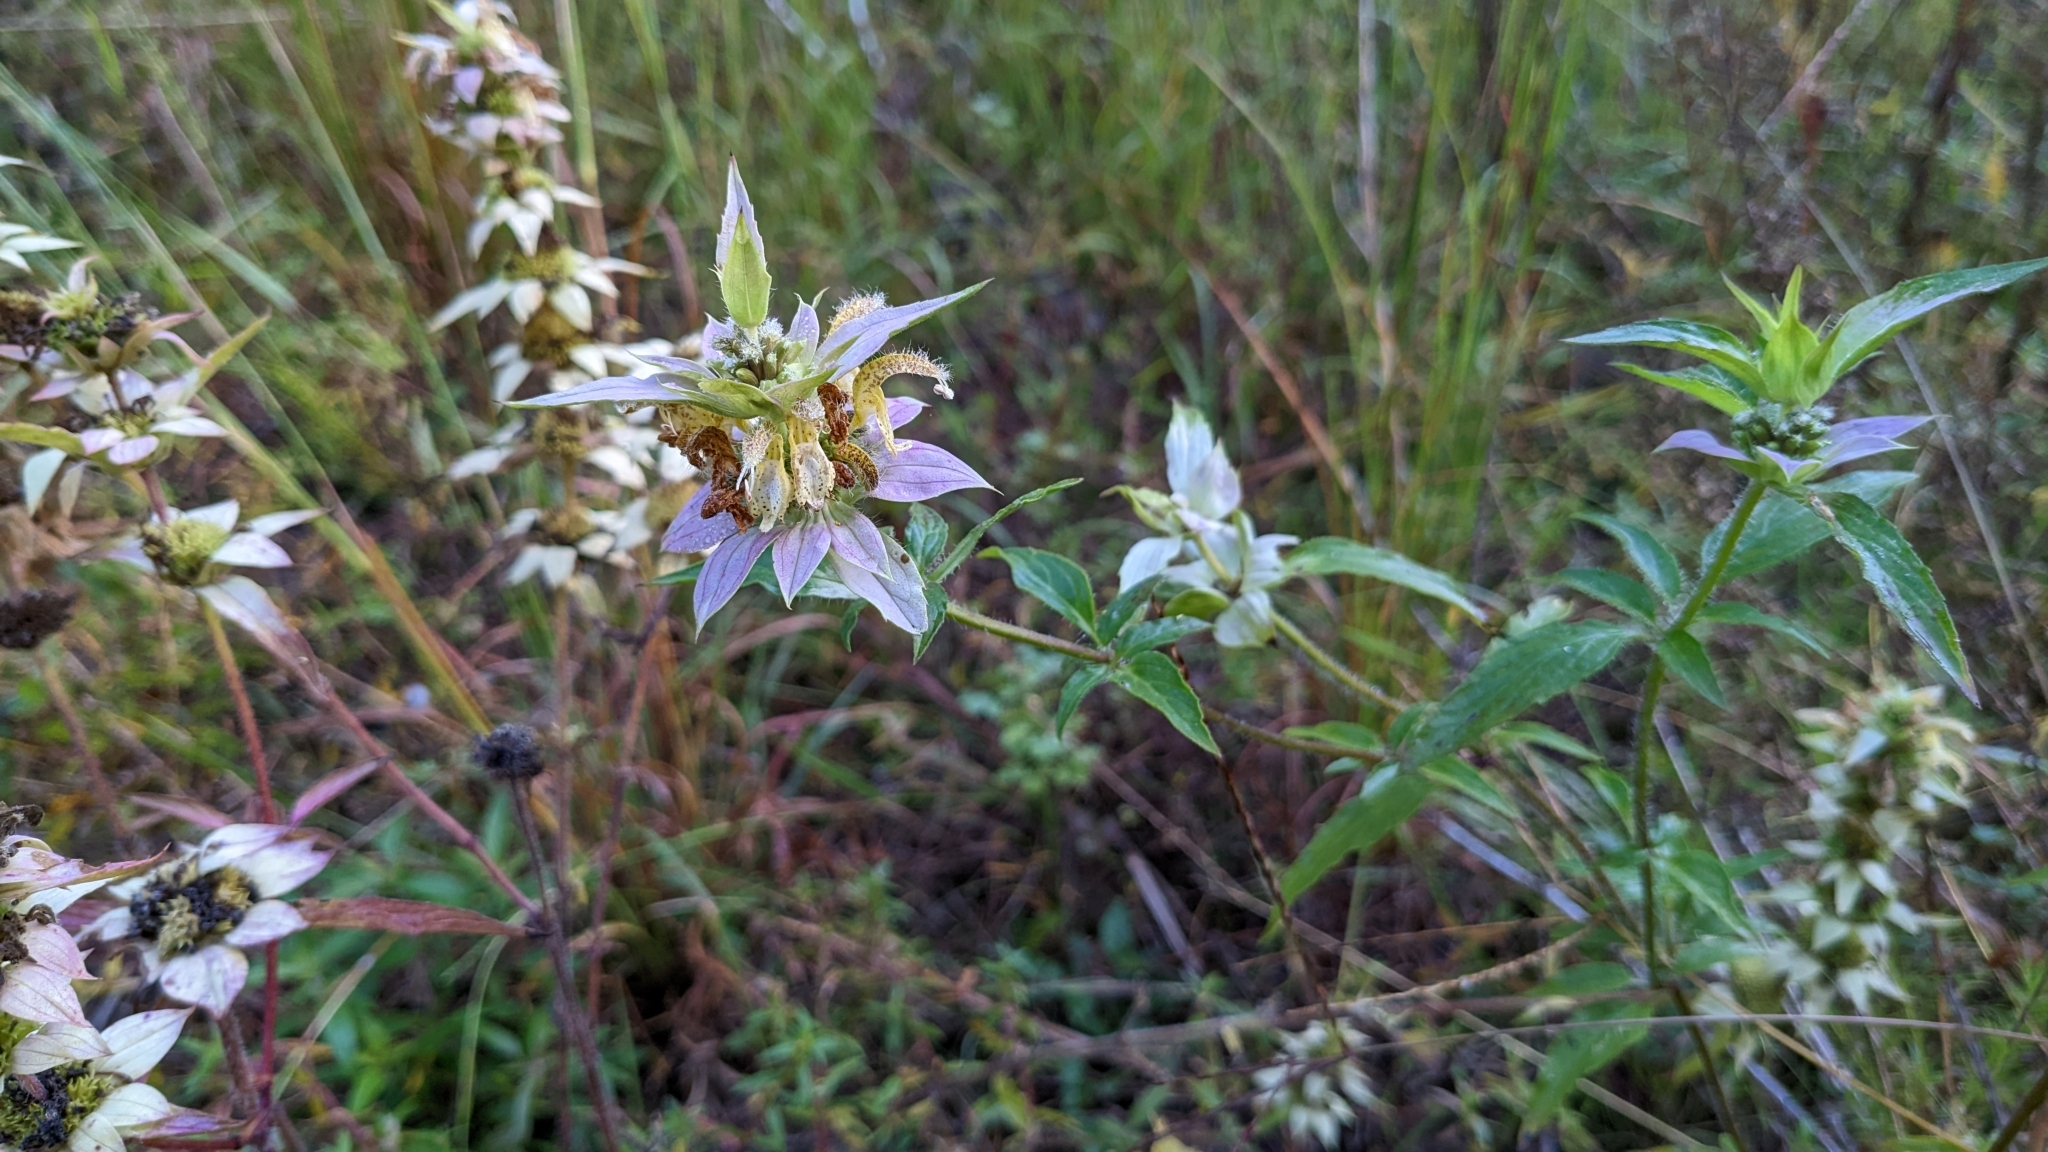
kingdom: Plantae
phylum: Tracheophyta
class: Magnoliopsida
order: Lamiales
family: Lamiaceae
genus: Monarda
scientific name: Monarda punctata
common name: Dotted monarda
